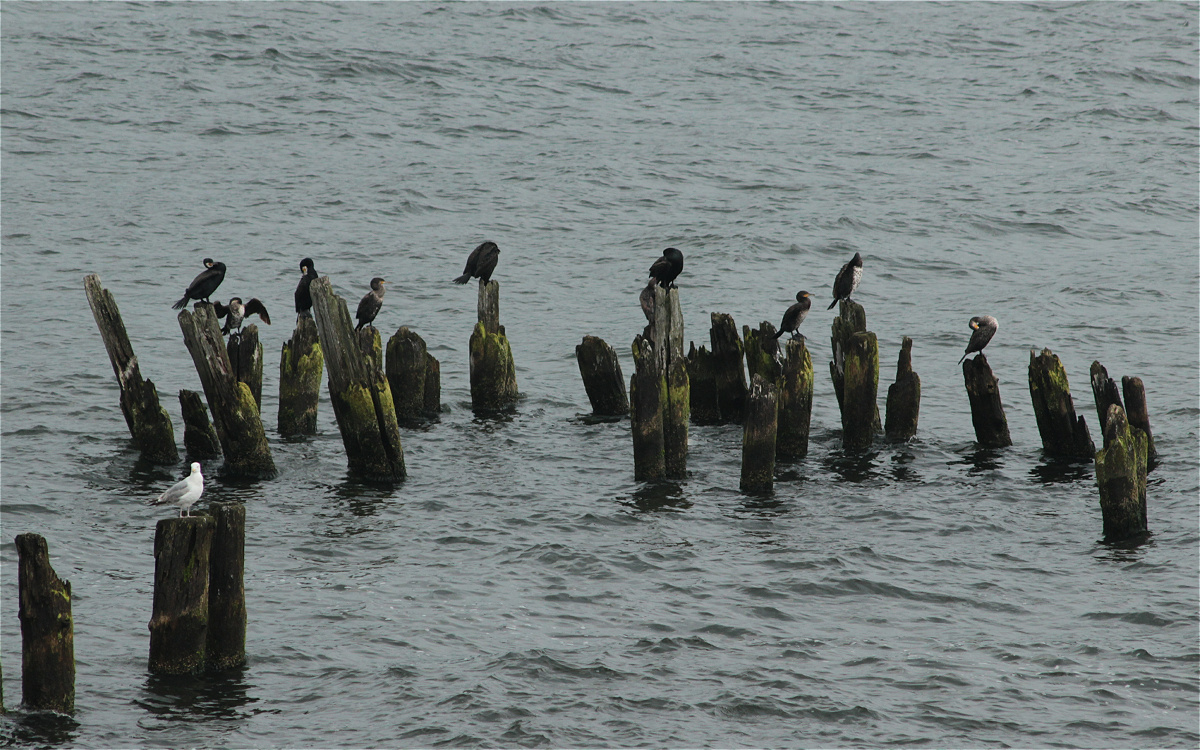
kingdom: Animalia
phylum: Chordata
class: Aves
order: Suliformes
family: Phalacrocoracidae
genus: Phalacrocorax
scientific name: Phalacrocorax carbo
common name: Great cormorant
